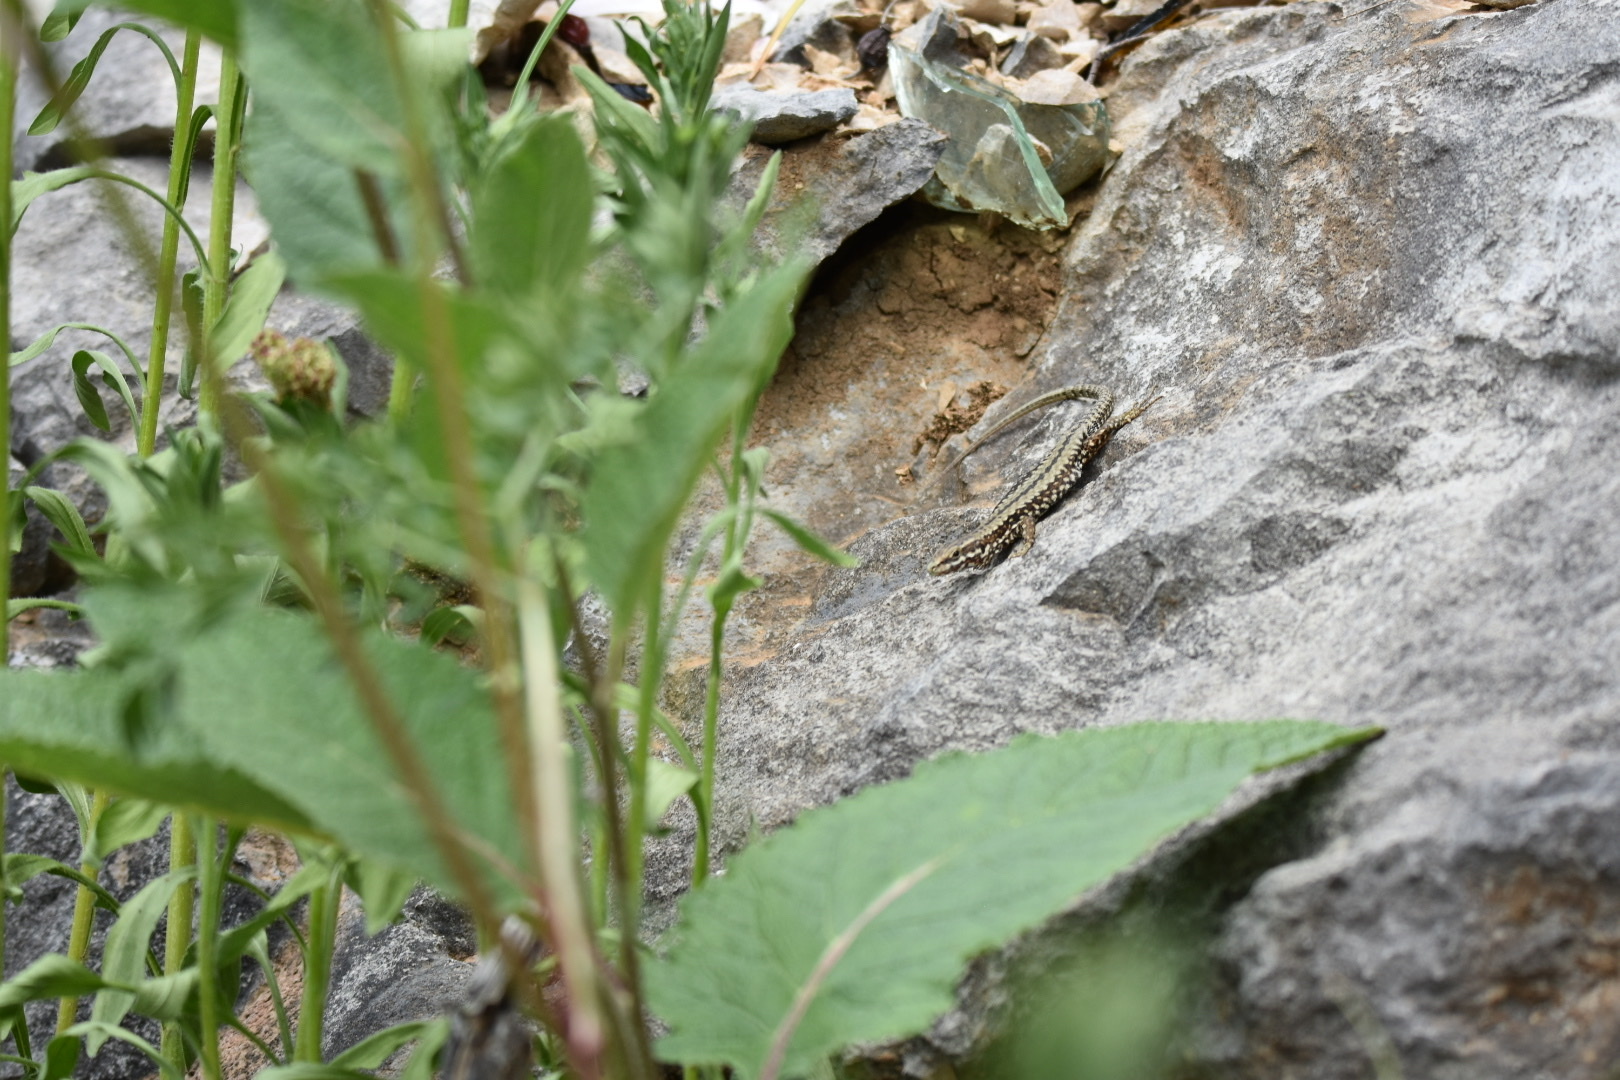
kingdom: Animalia
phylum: Chordata
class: Squamata
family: Lacertidae
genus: Podarcis
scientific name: Podarcis muralis
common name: Common wall lizard
